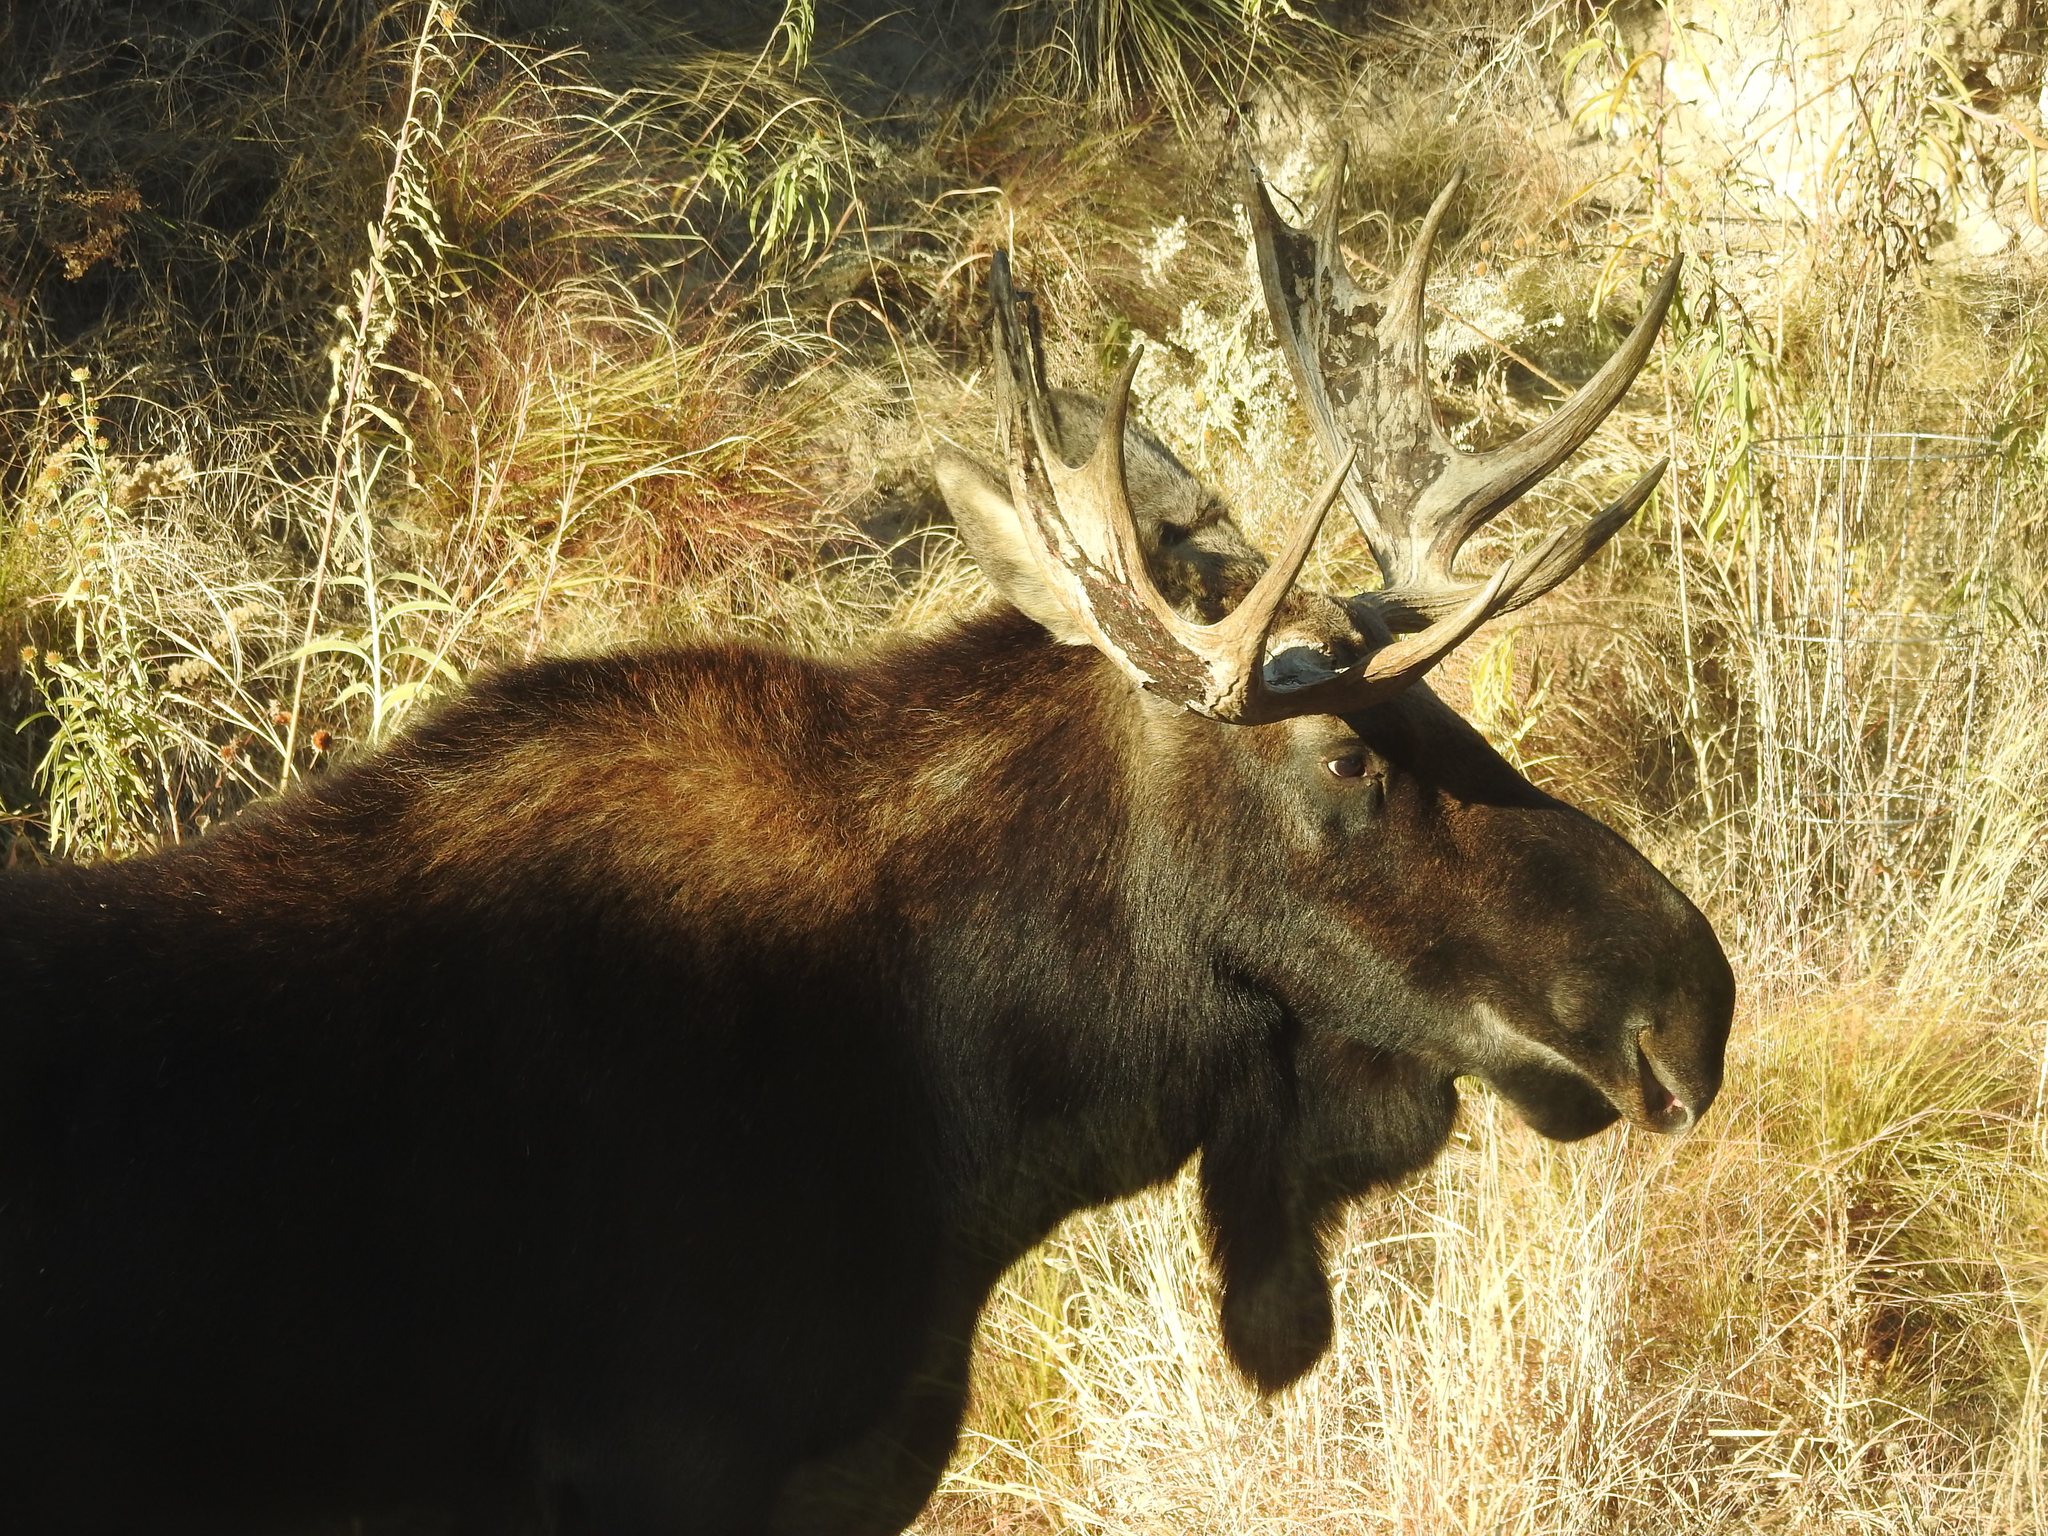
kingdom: Animalia
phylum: Chordata
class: Mammalia
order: Artiodactyla
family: Cervidae
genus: Alces
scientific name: Alces alces
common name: Moose
